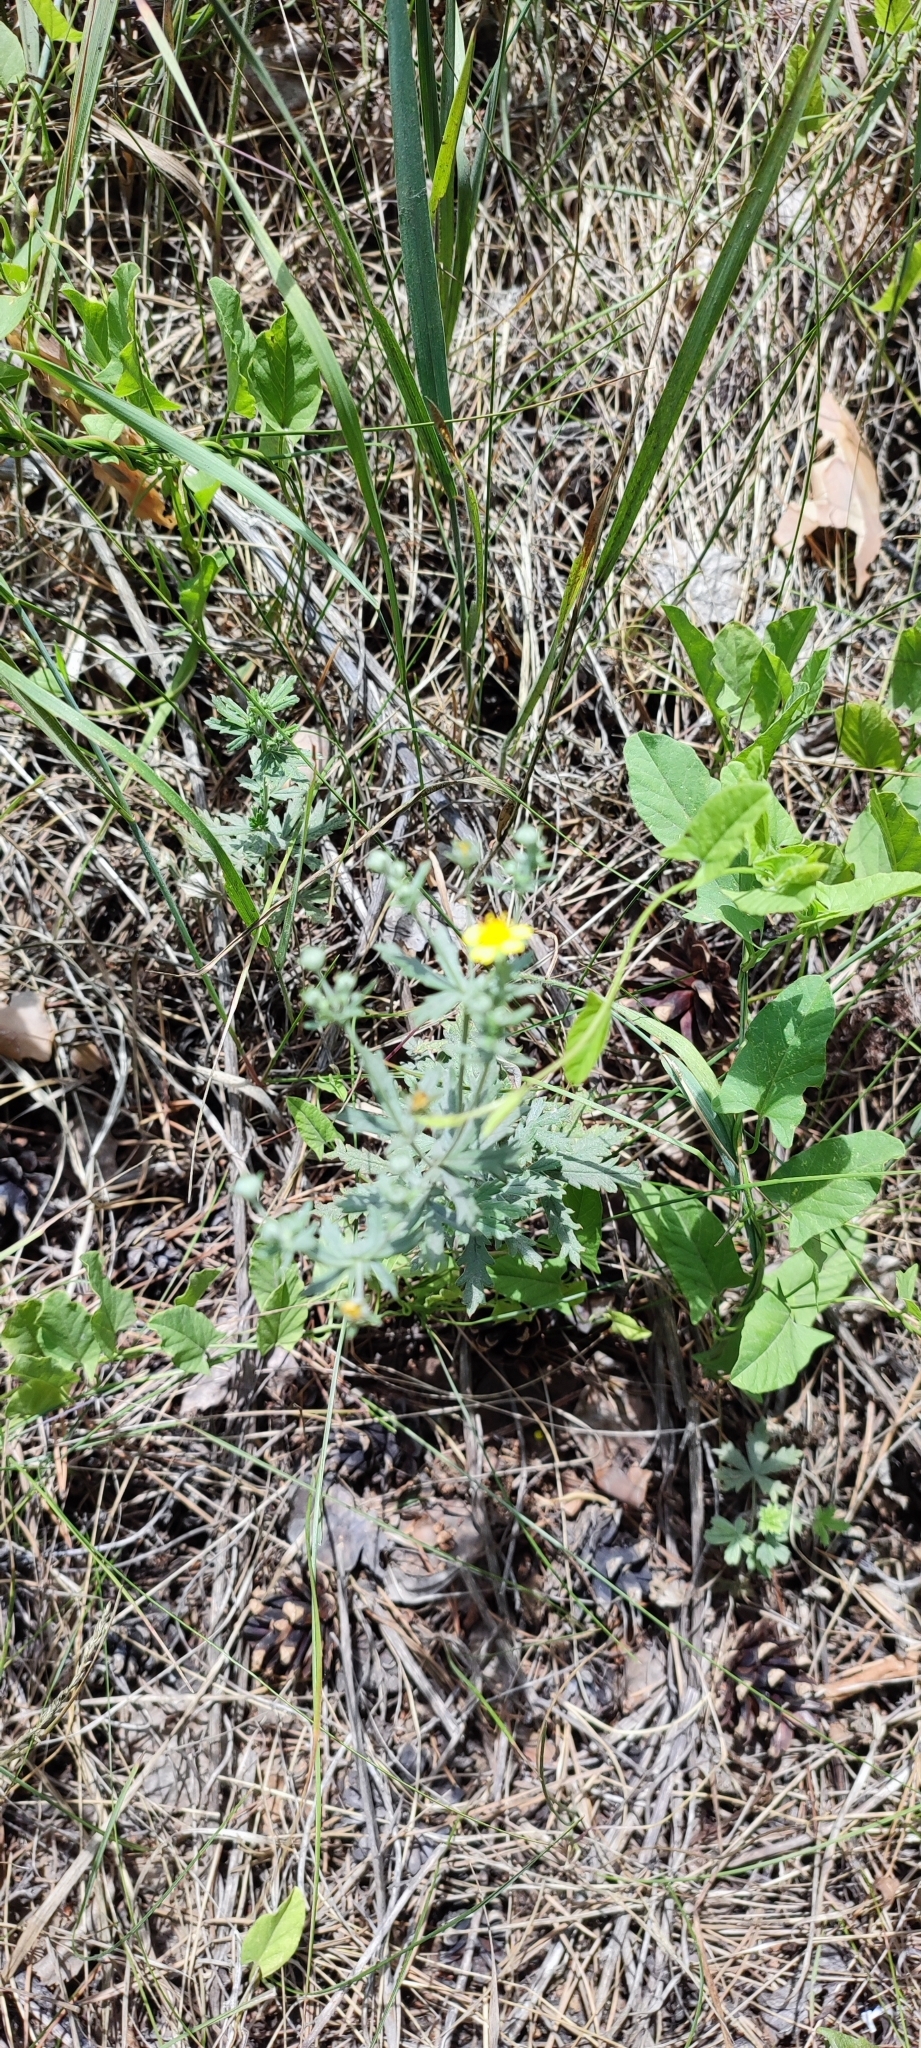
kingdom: Plantae
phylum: Tracheophyta
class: Magnoliopsida
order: Rosales
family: Rosaceae
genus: Potentilla
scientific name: Potentilla argentea
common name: Hoary cinquefoil
